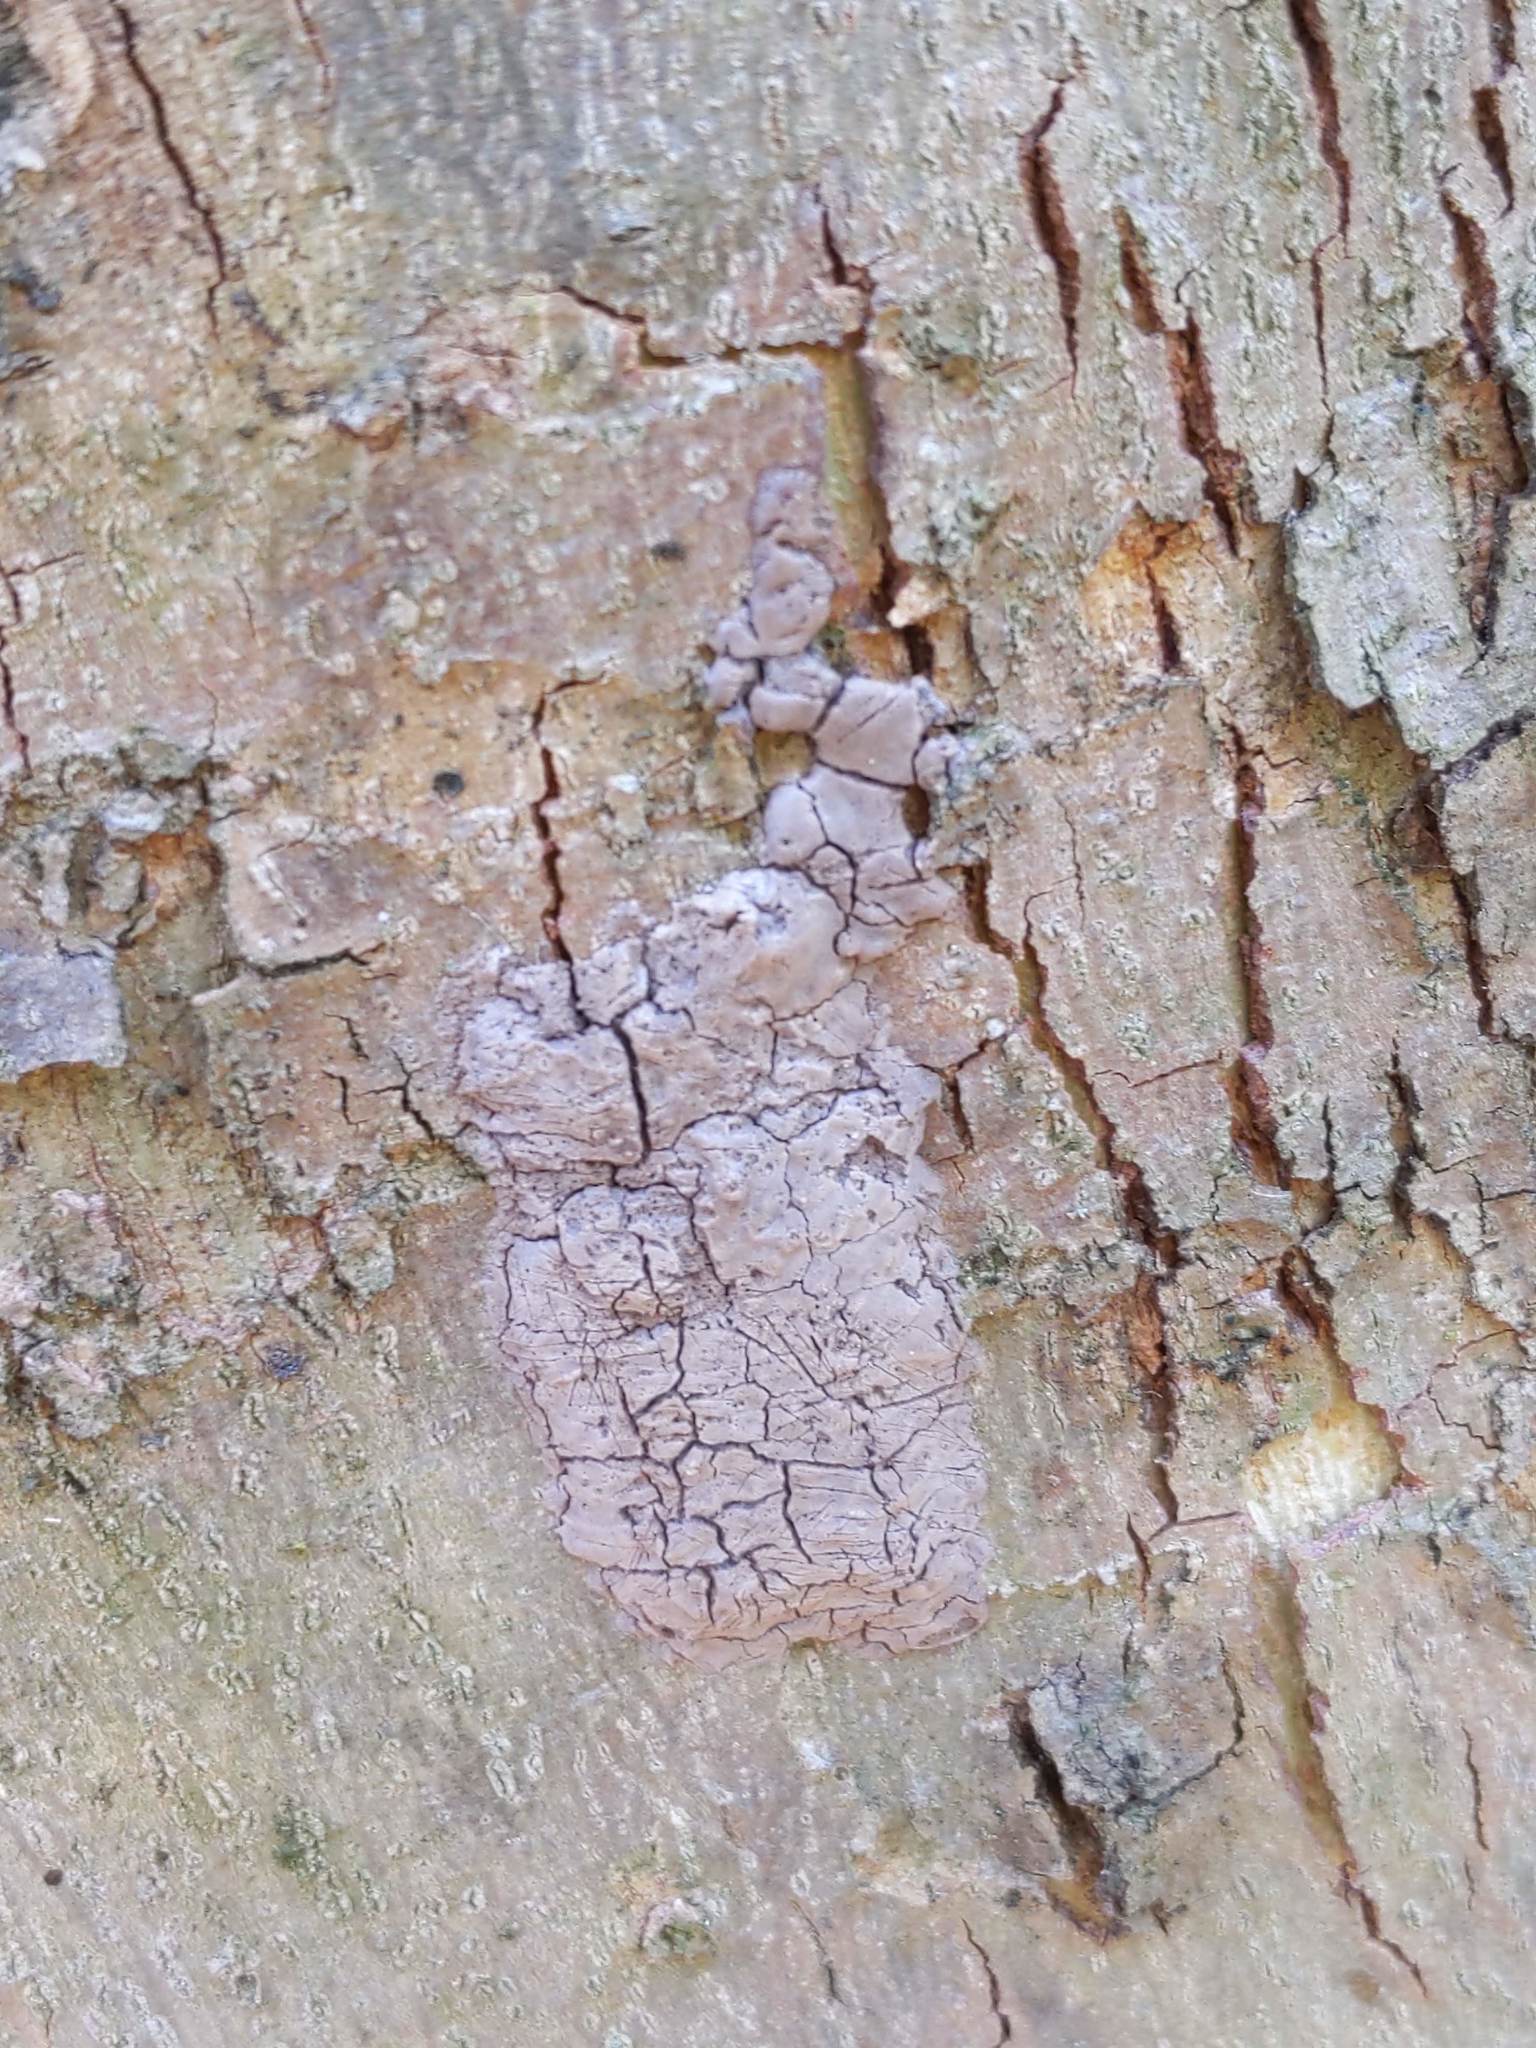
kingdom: Animalia
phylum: Arthropoda
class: Insecta
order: Hemiptera
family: Fulgoridae
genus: Lycorma
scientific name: Lycorma delicatula
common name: Spotted lanternfly
